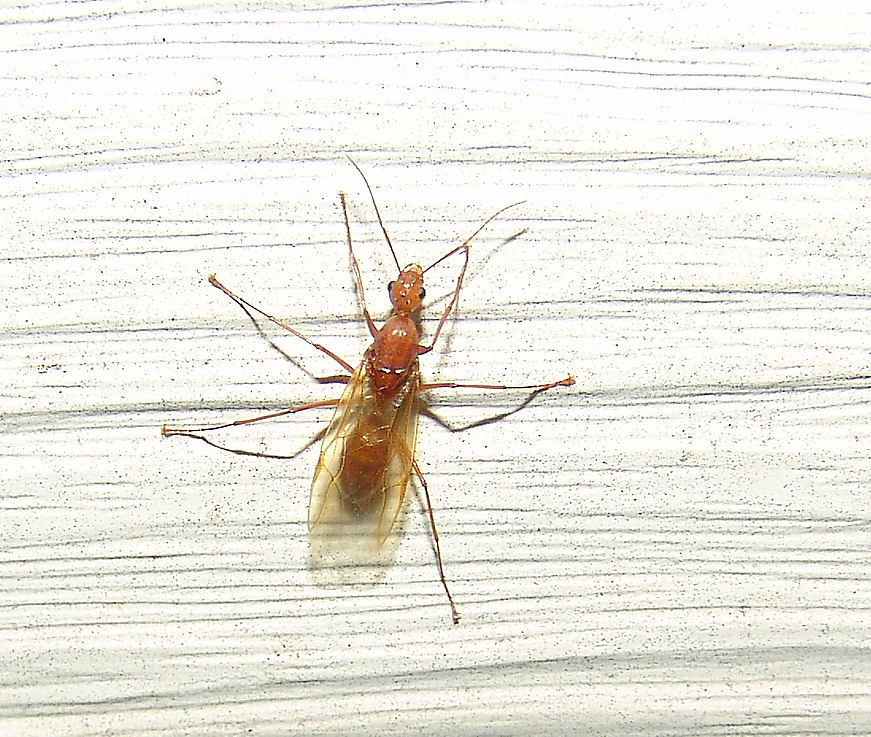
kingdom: Animalia
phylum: Arthropoda
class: Insecta
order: Hymenoptera
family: Formicidae
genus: Camponotus
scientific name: Camponotus castaneus
